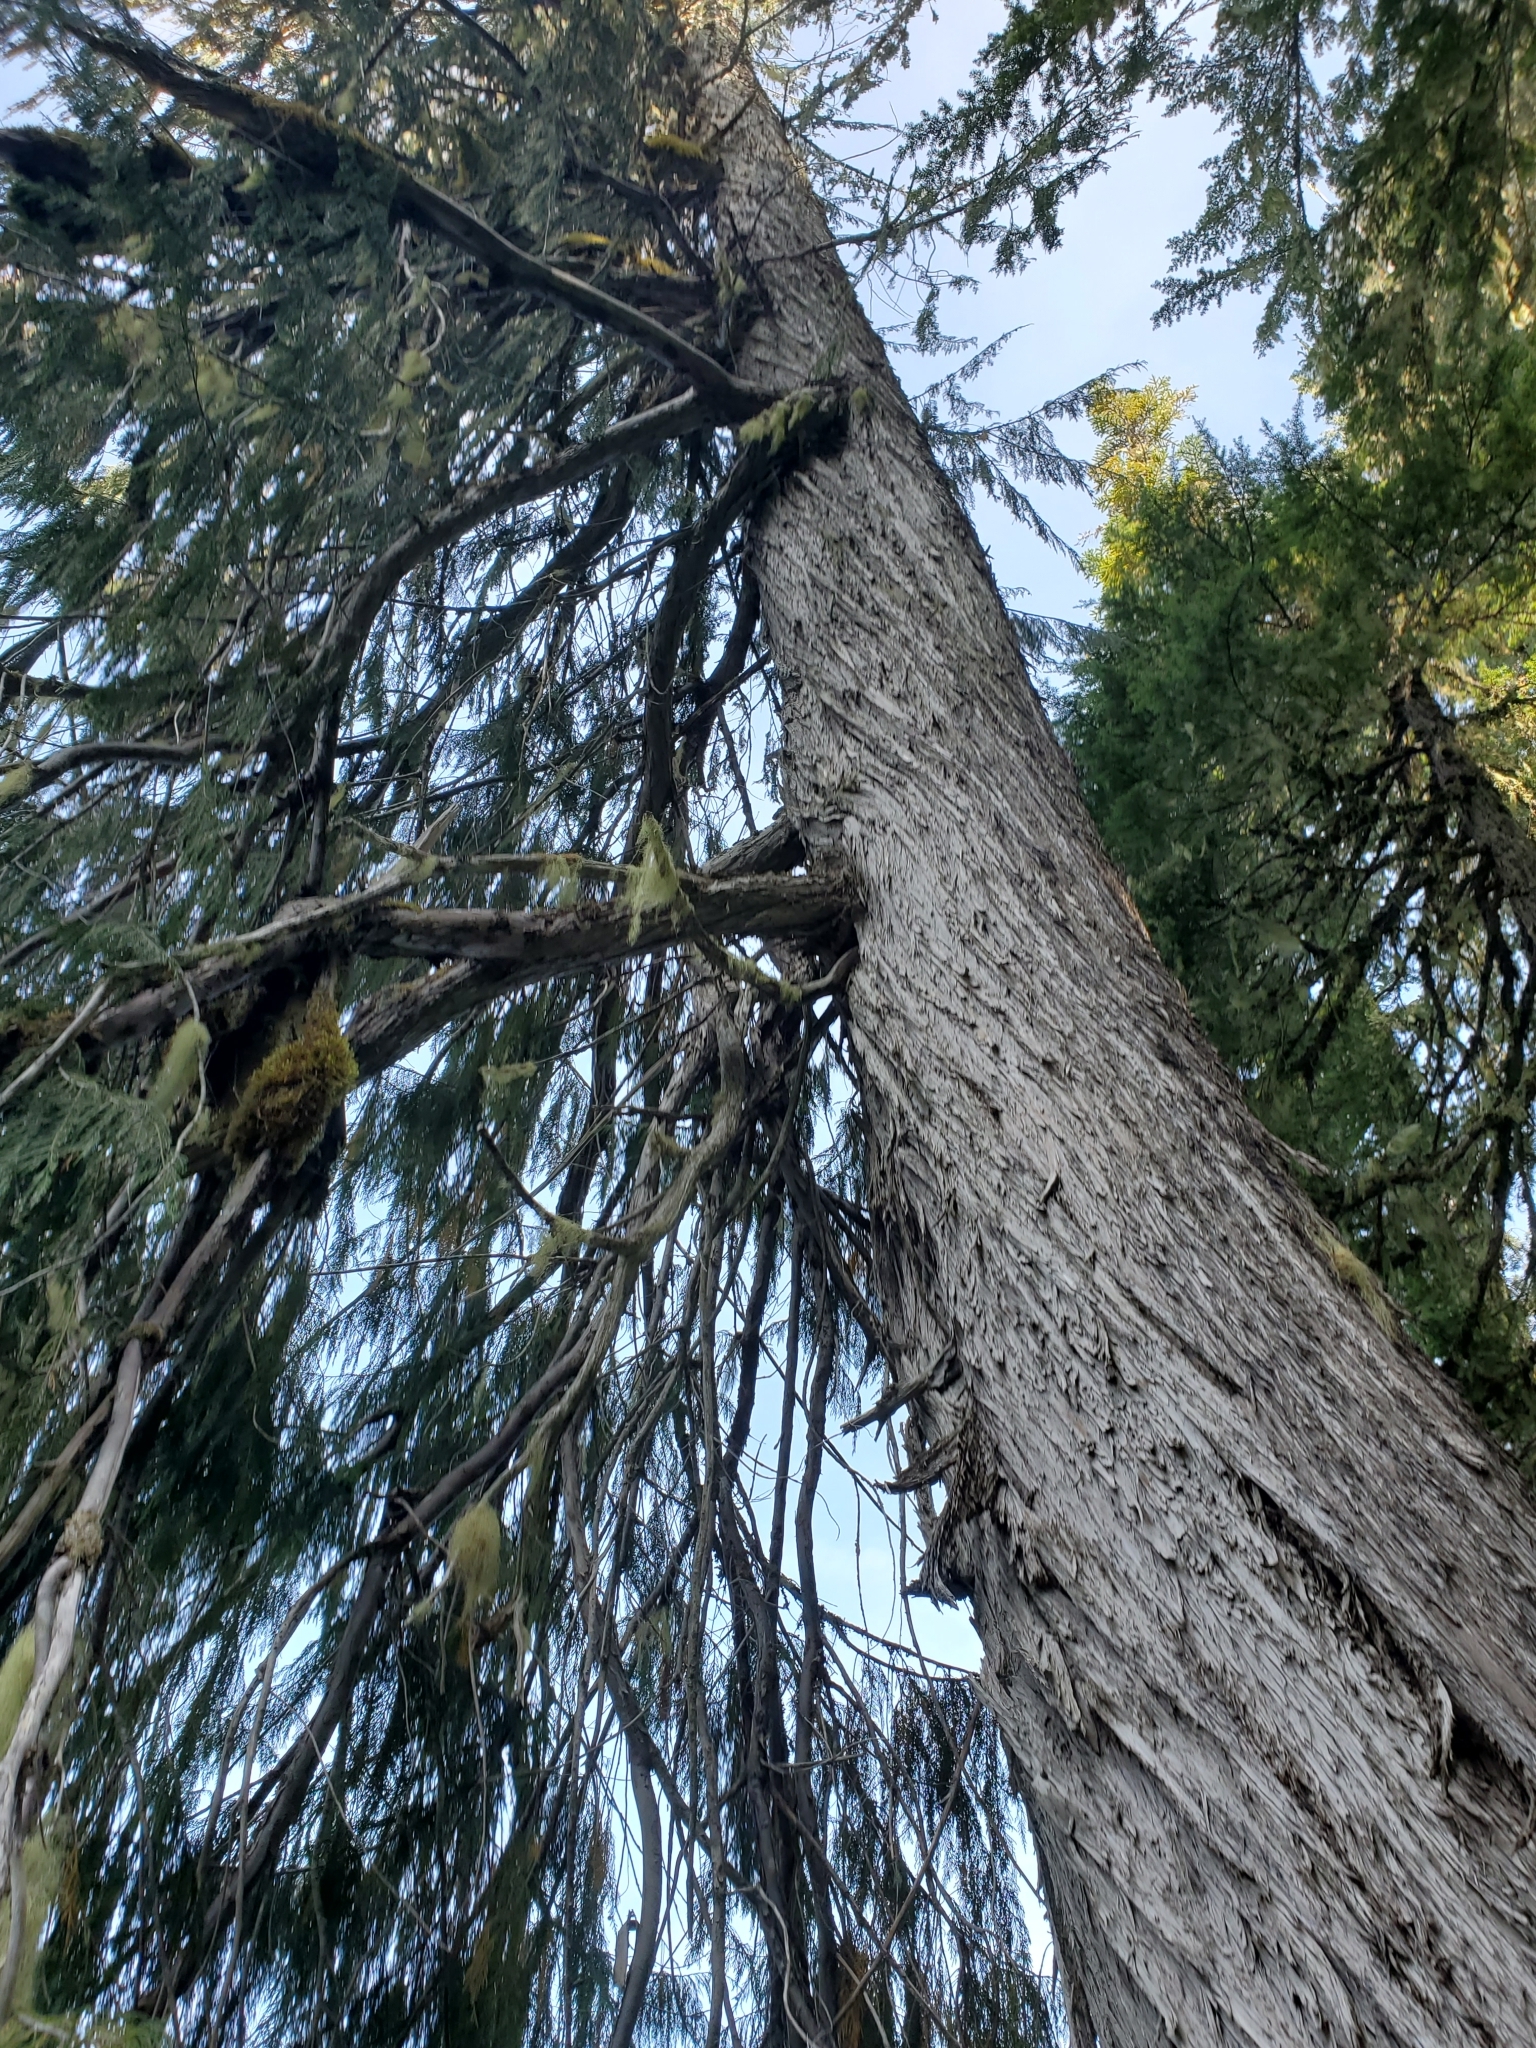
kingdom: Plantae
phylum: Tracheophyta
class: Pinopsida
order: Pinales
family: Cupressaceae
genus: Xanthocyparis
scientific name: Xanthocyparis nootkatensis
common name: Nootka cypress
